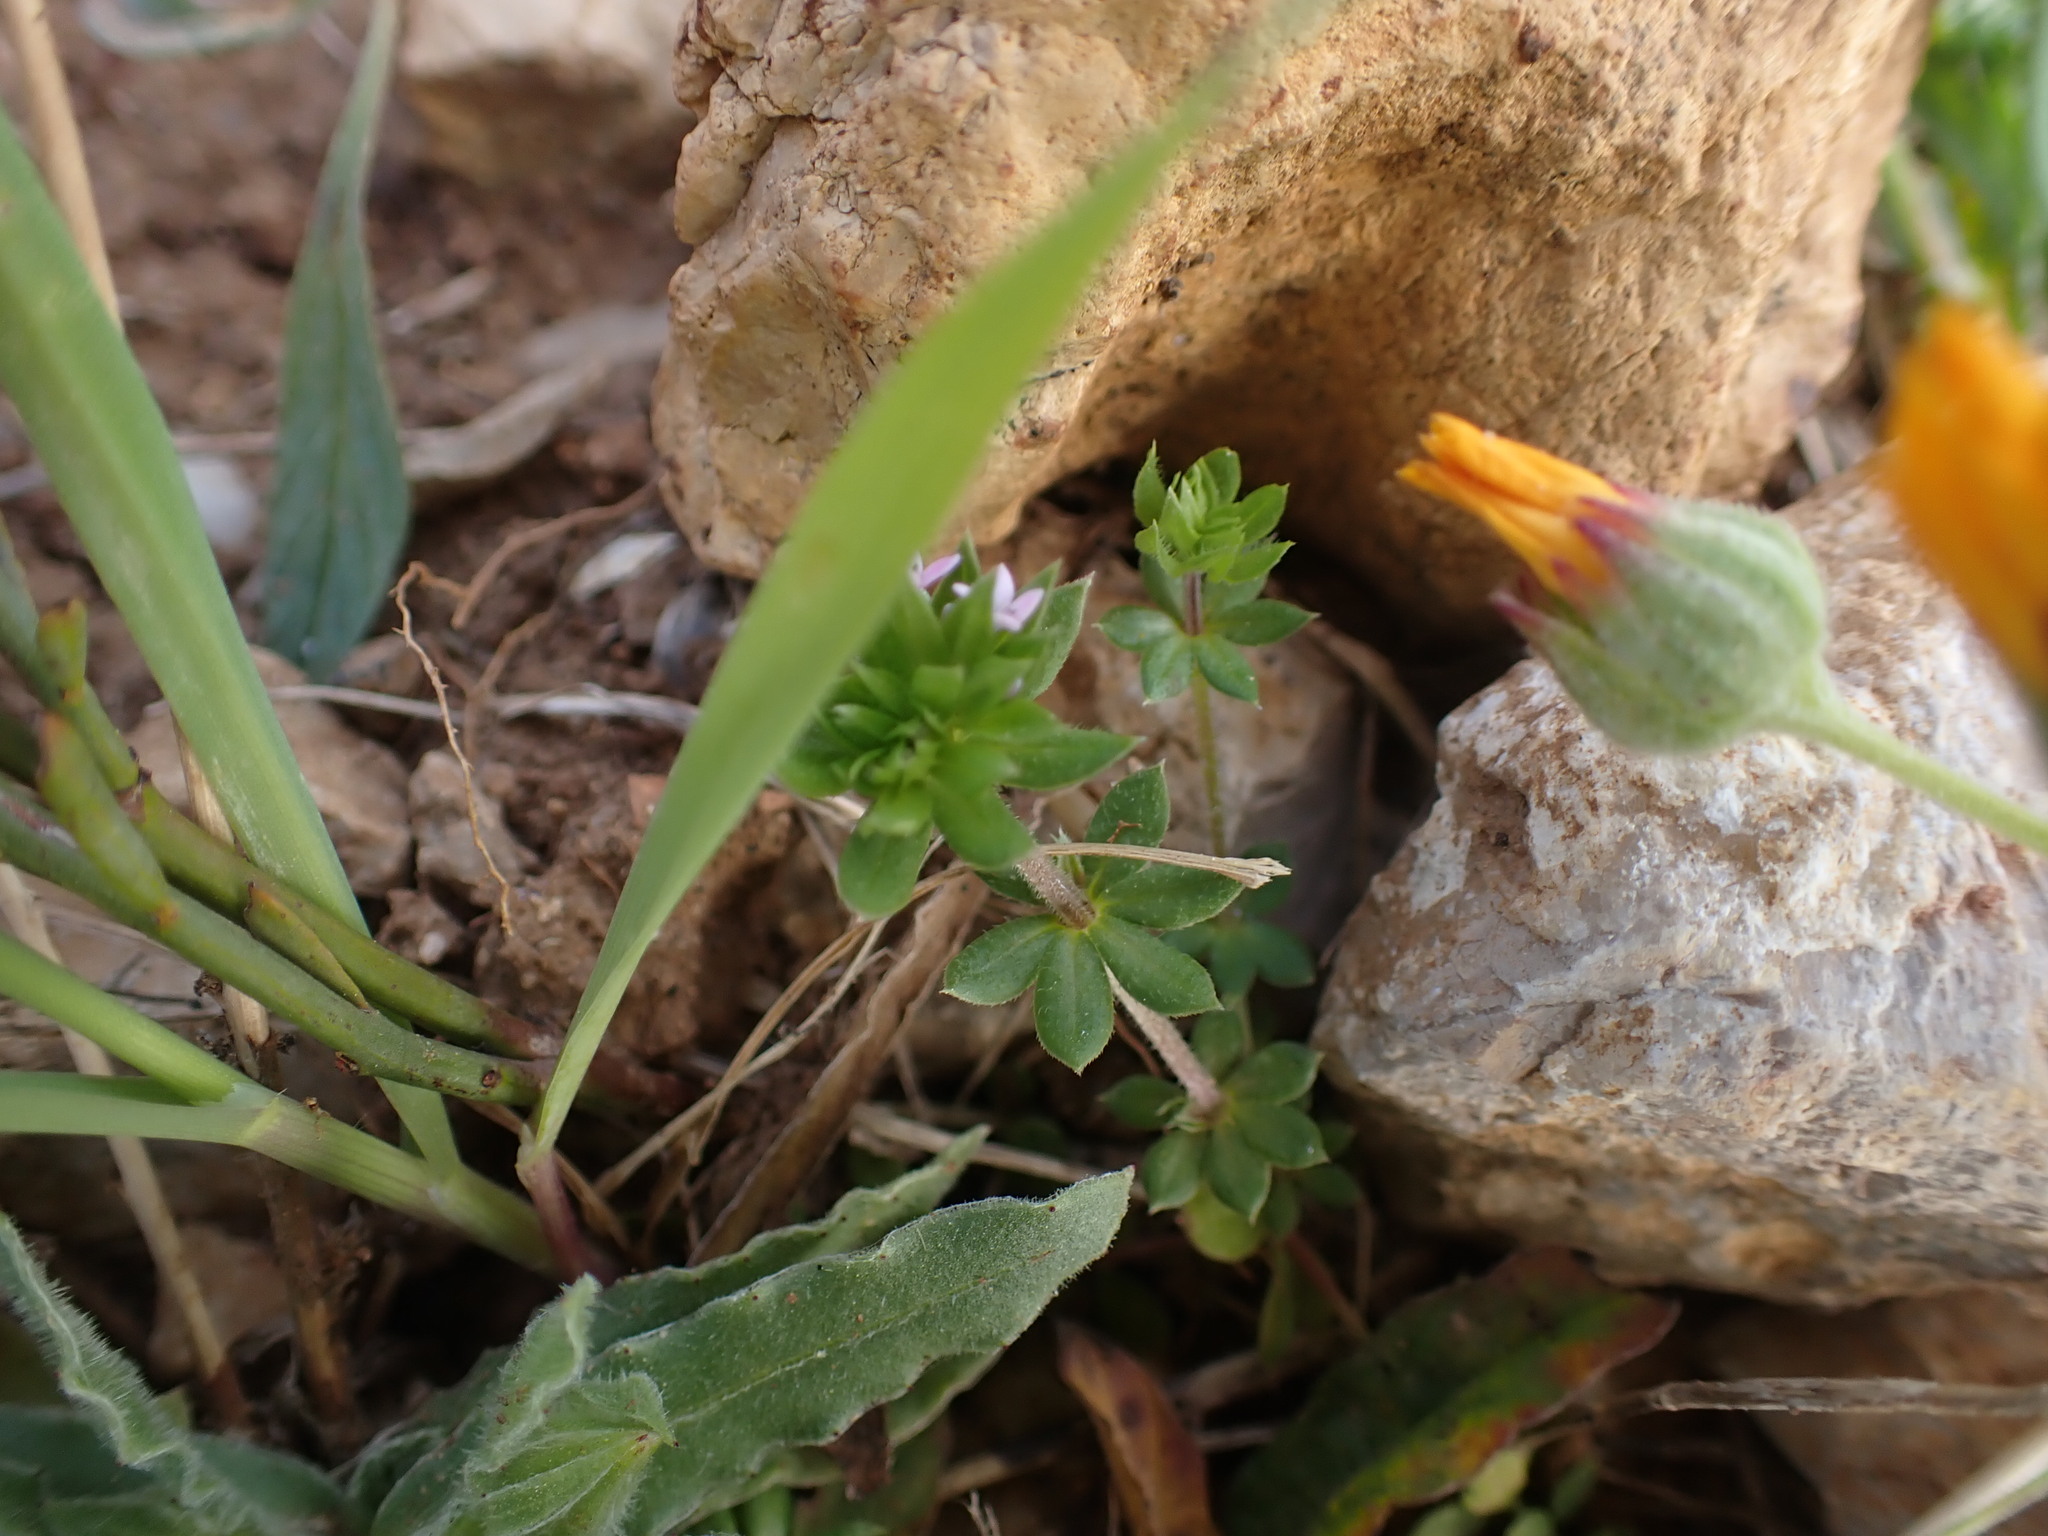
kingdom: Plantae
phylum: Tracheophyta
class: Magnoliopsida
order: Gentianales
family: Rubiaceae
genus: Sherardia
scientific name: Sherardia arvensis
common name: Field madder
